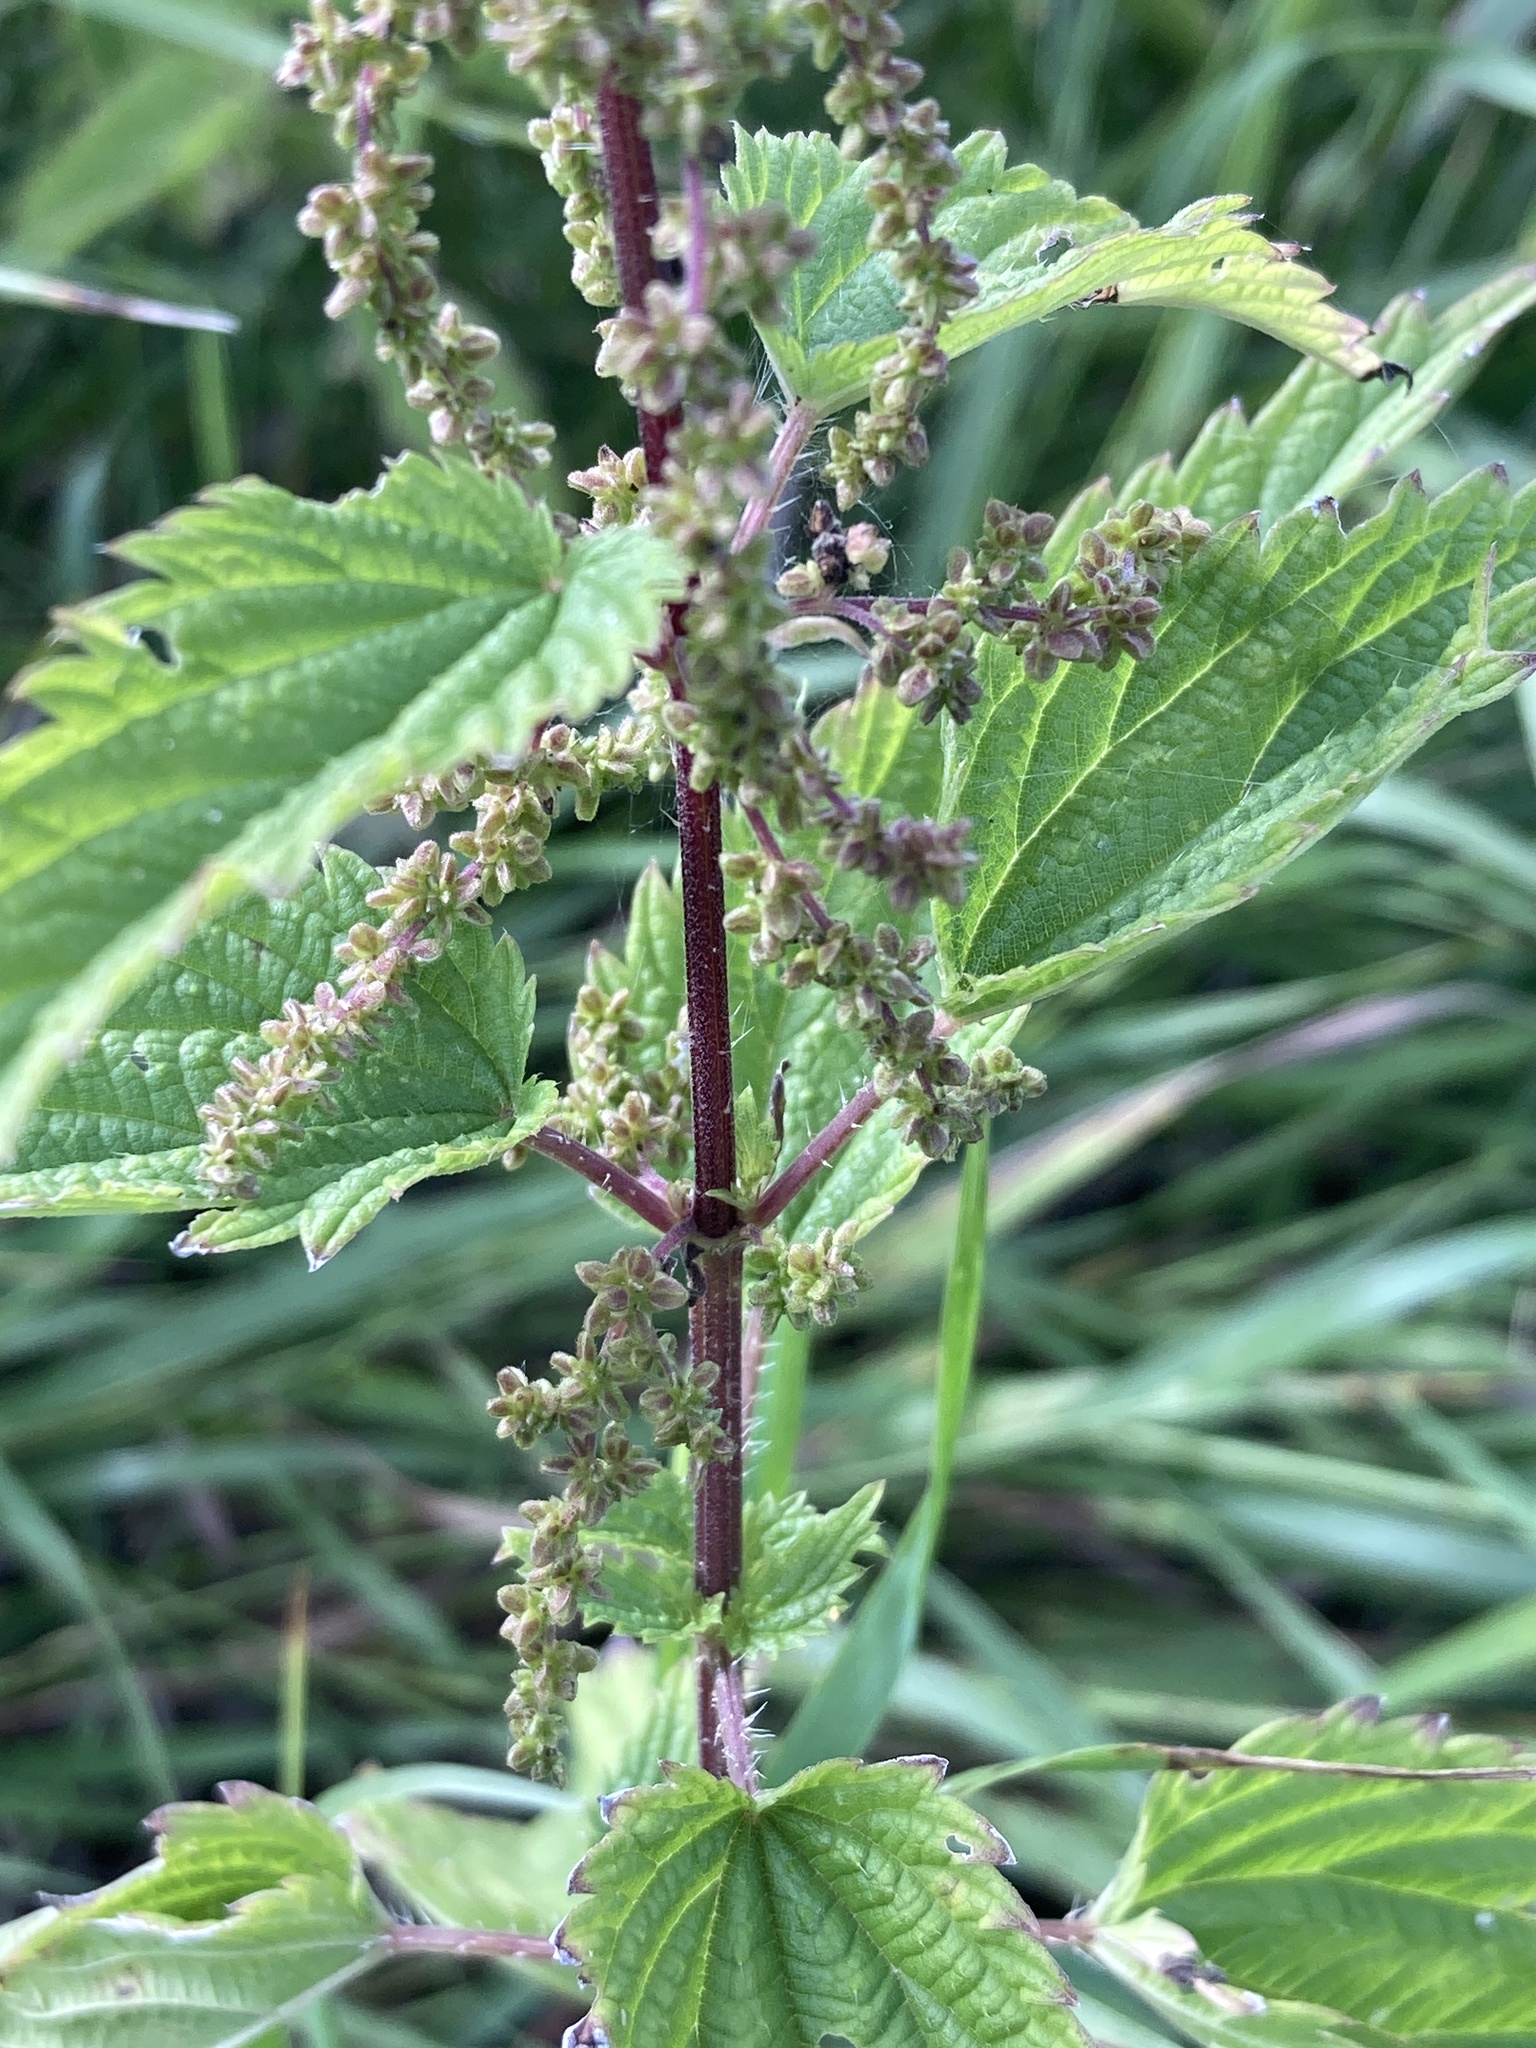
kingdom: Plantae
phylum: Tracheophyta
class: Magnoliopsida
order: Rosales
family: Urticaceae
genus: Urtica
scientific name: Urtica dioica
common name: Common nettle
